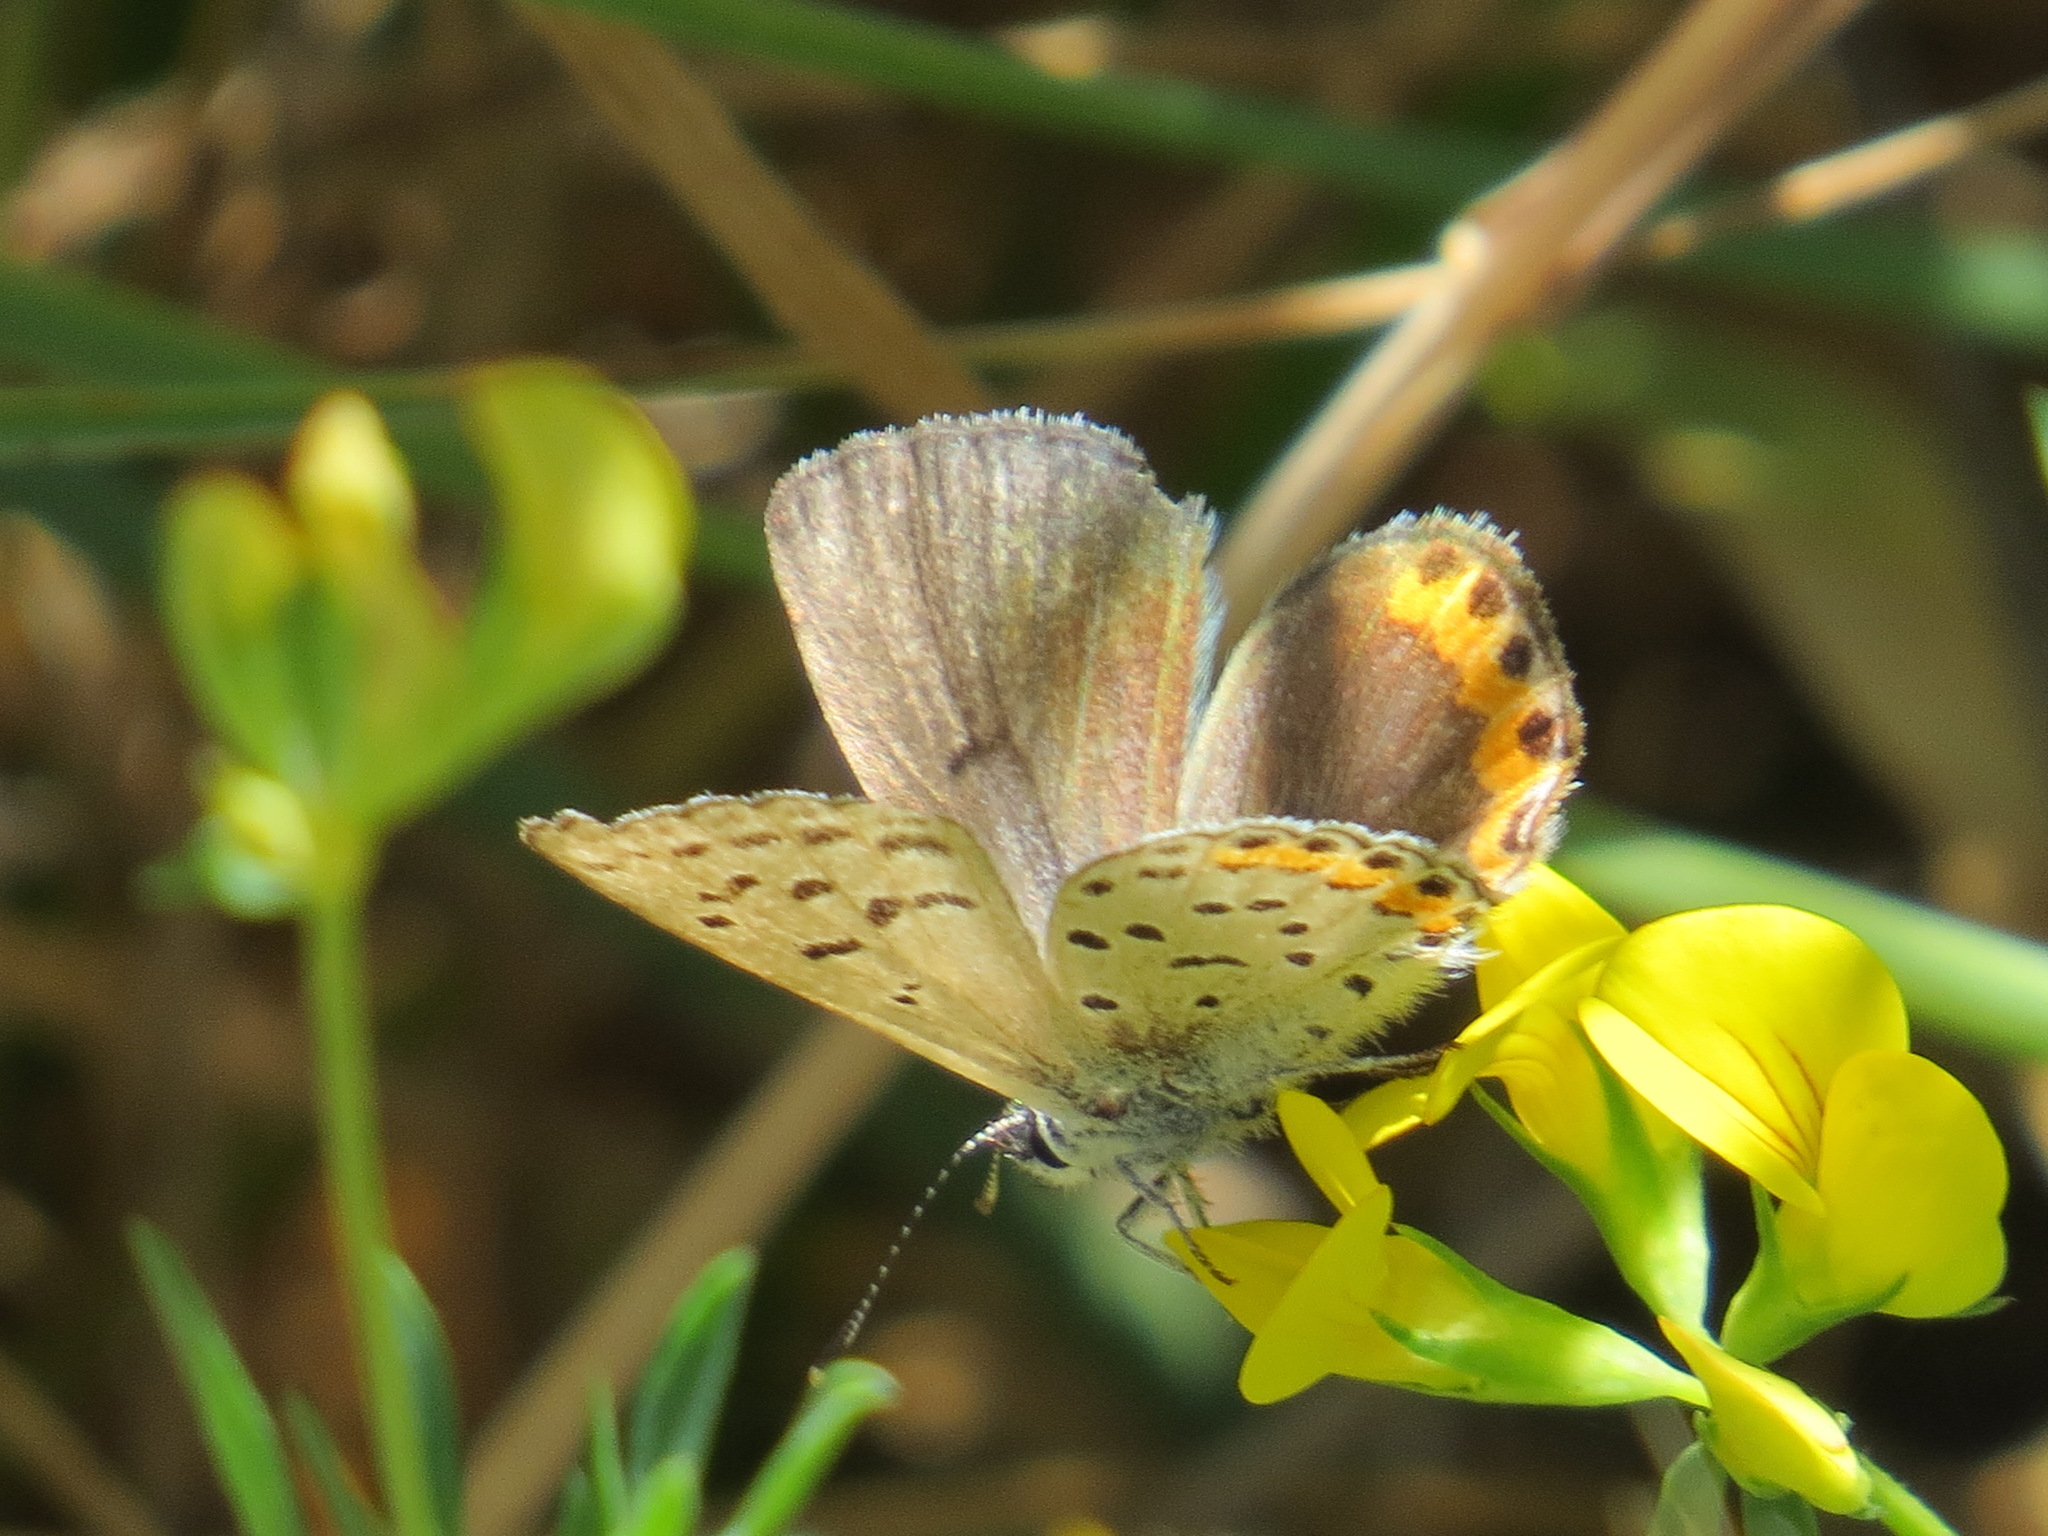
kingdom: Animalia
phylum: Arthropoda
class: Insecta
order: Lepidoptera
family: Lycaenidae
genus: Icaricia
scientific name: Icaricia acmon
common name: Acmon blue
